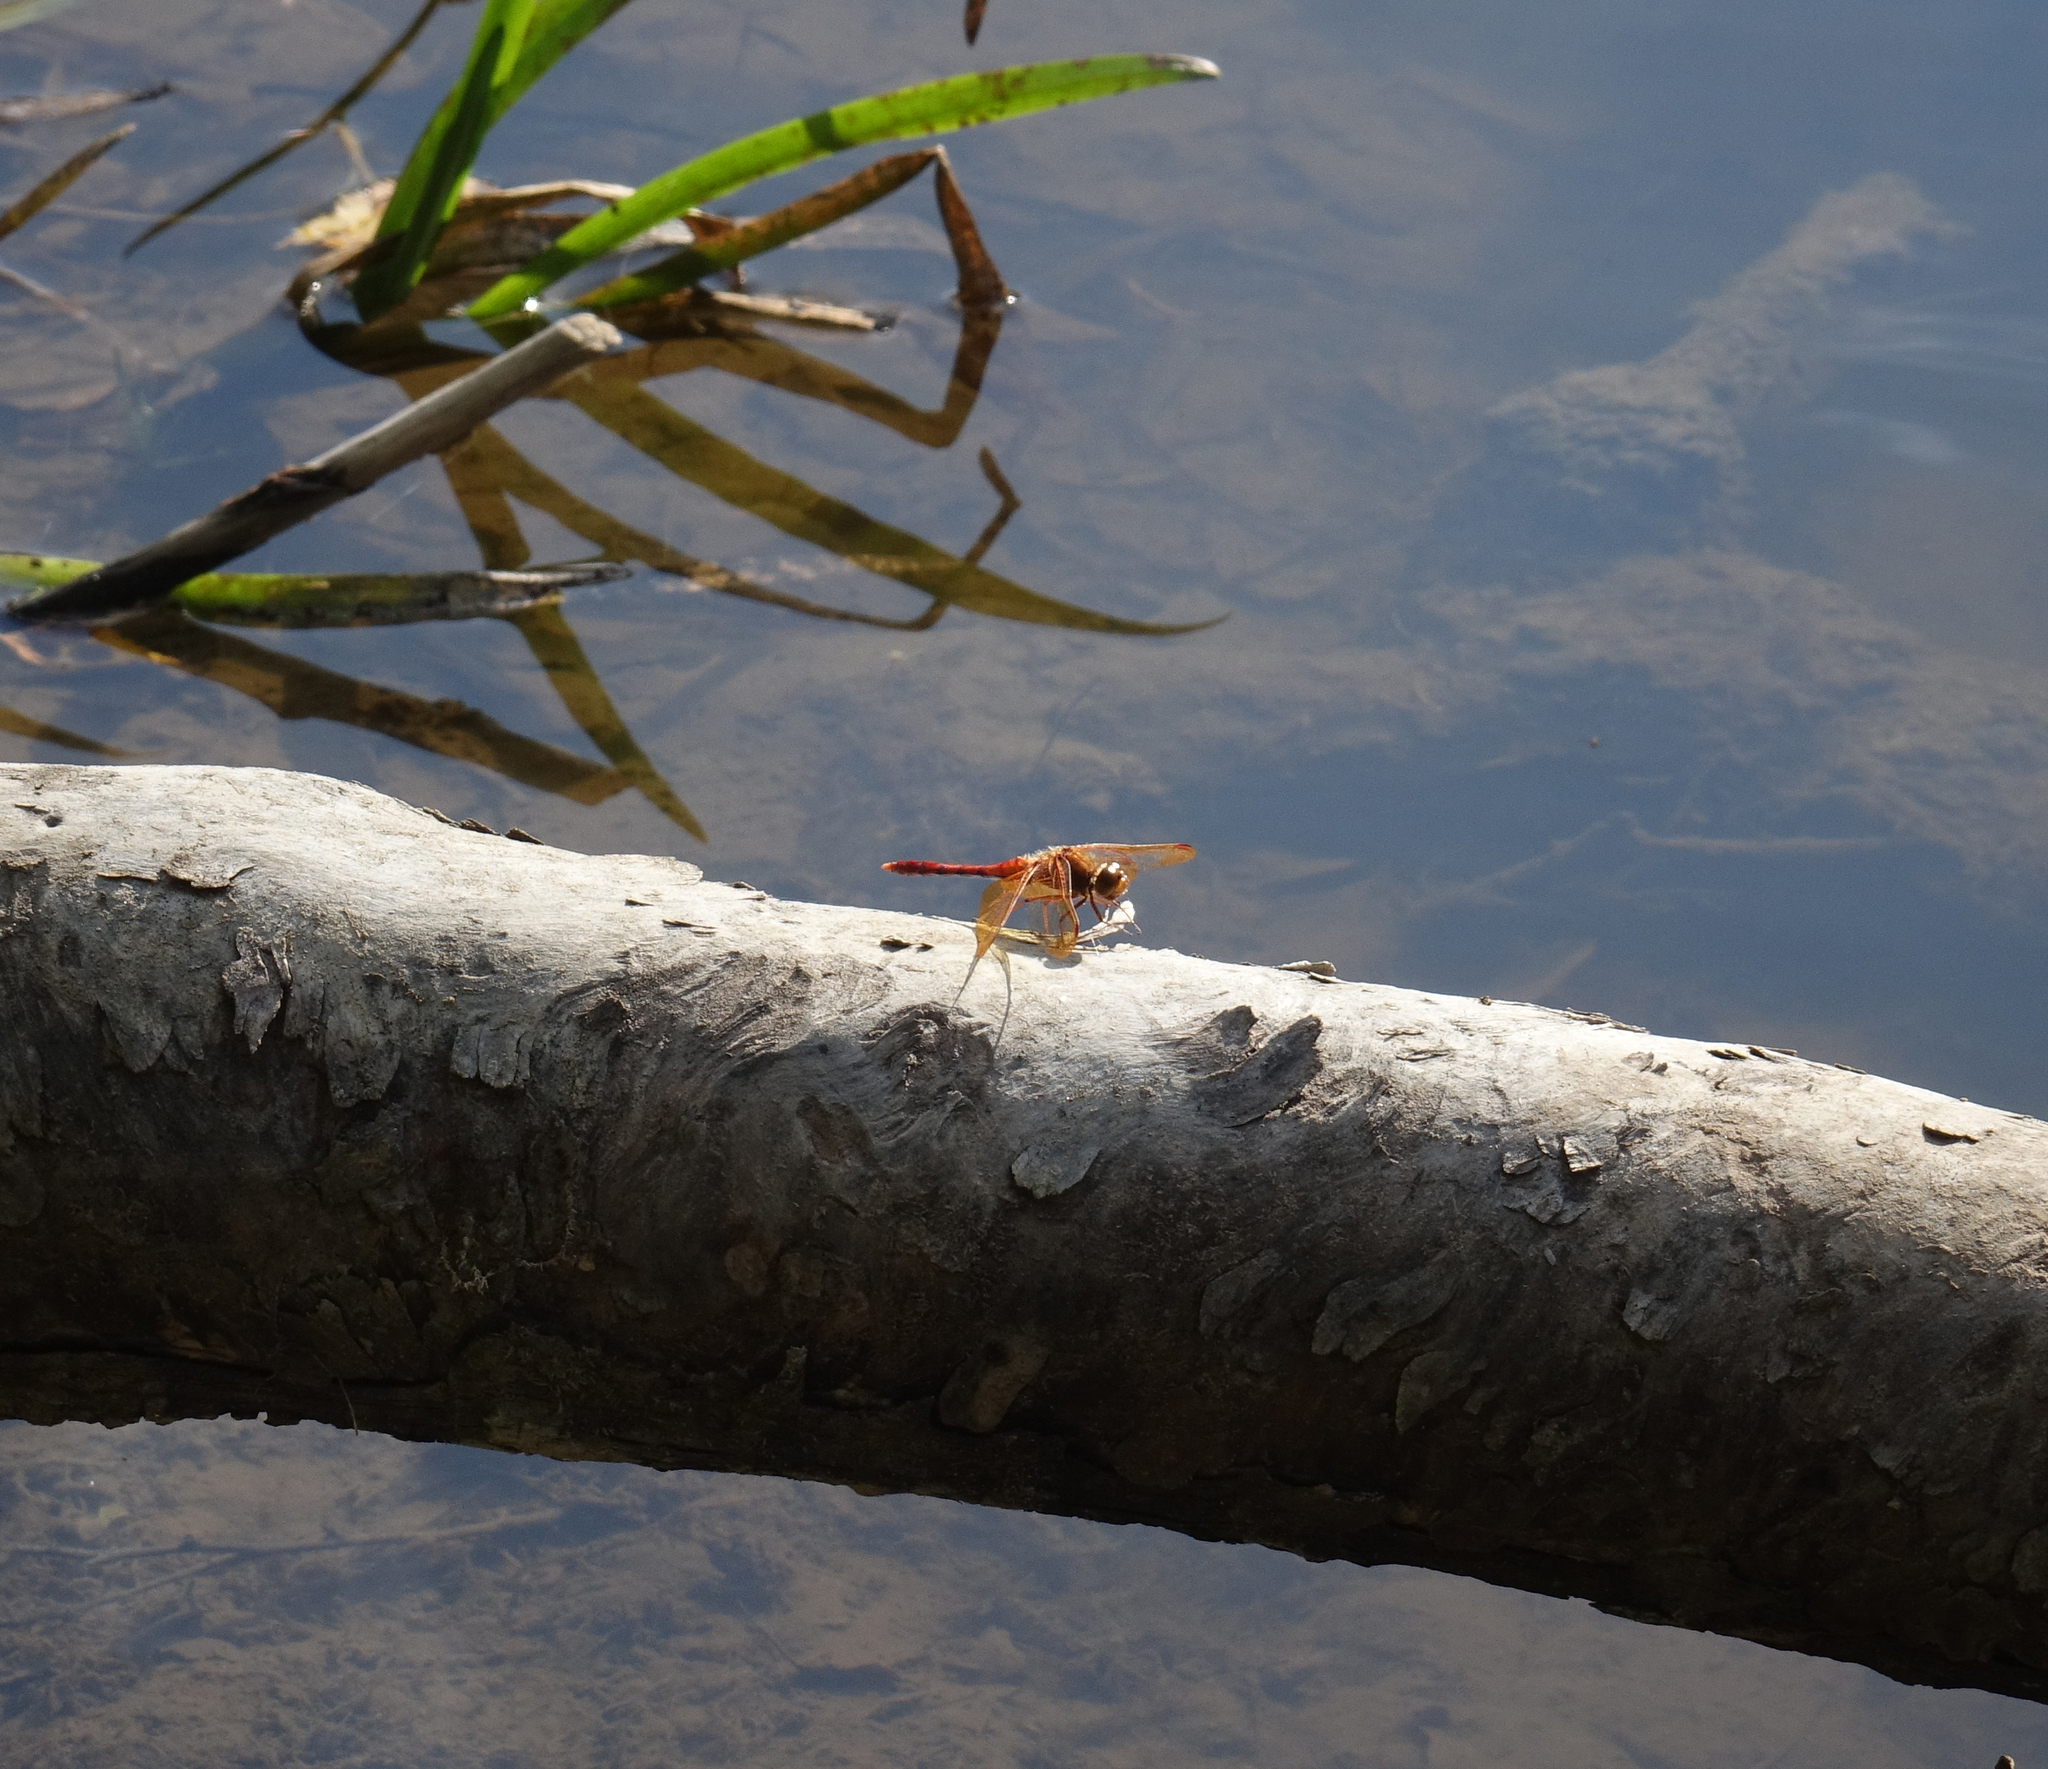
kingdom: Animalia
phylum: Arthropoda
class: Insecta
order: Odonata
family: Libellulidae
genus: Sympetrum
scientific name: Sympetrum croceolum
